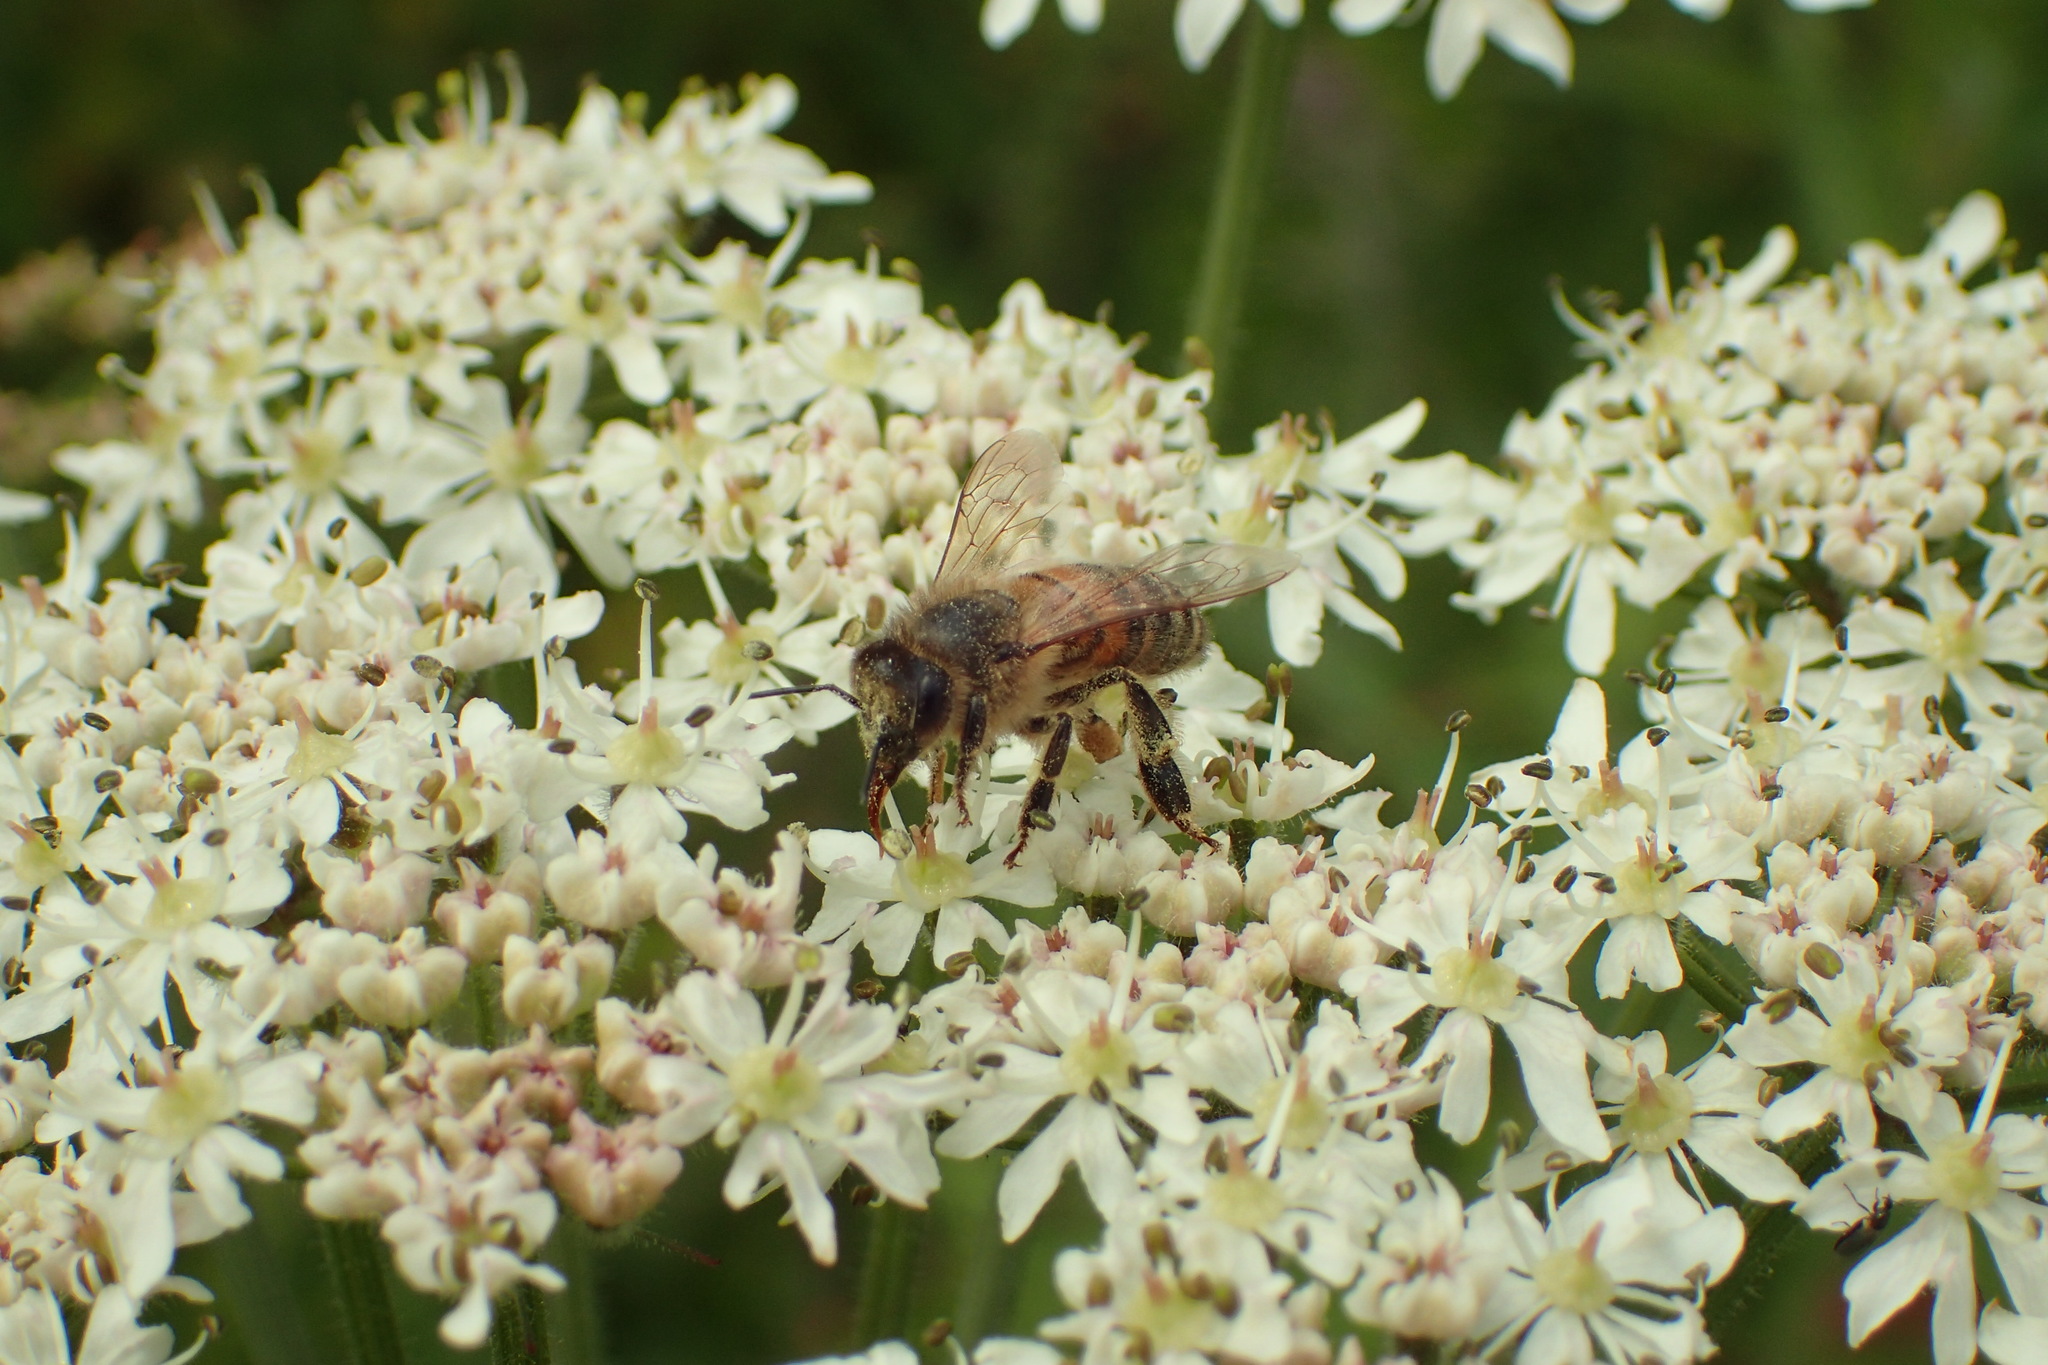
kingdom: Animalia
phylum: Arthropoda
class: Insecta
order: Hymenoptera
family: Apidae
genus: Apis
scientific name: Apis mellifera
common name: Honey bee
